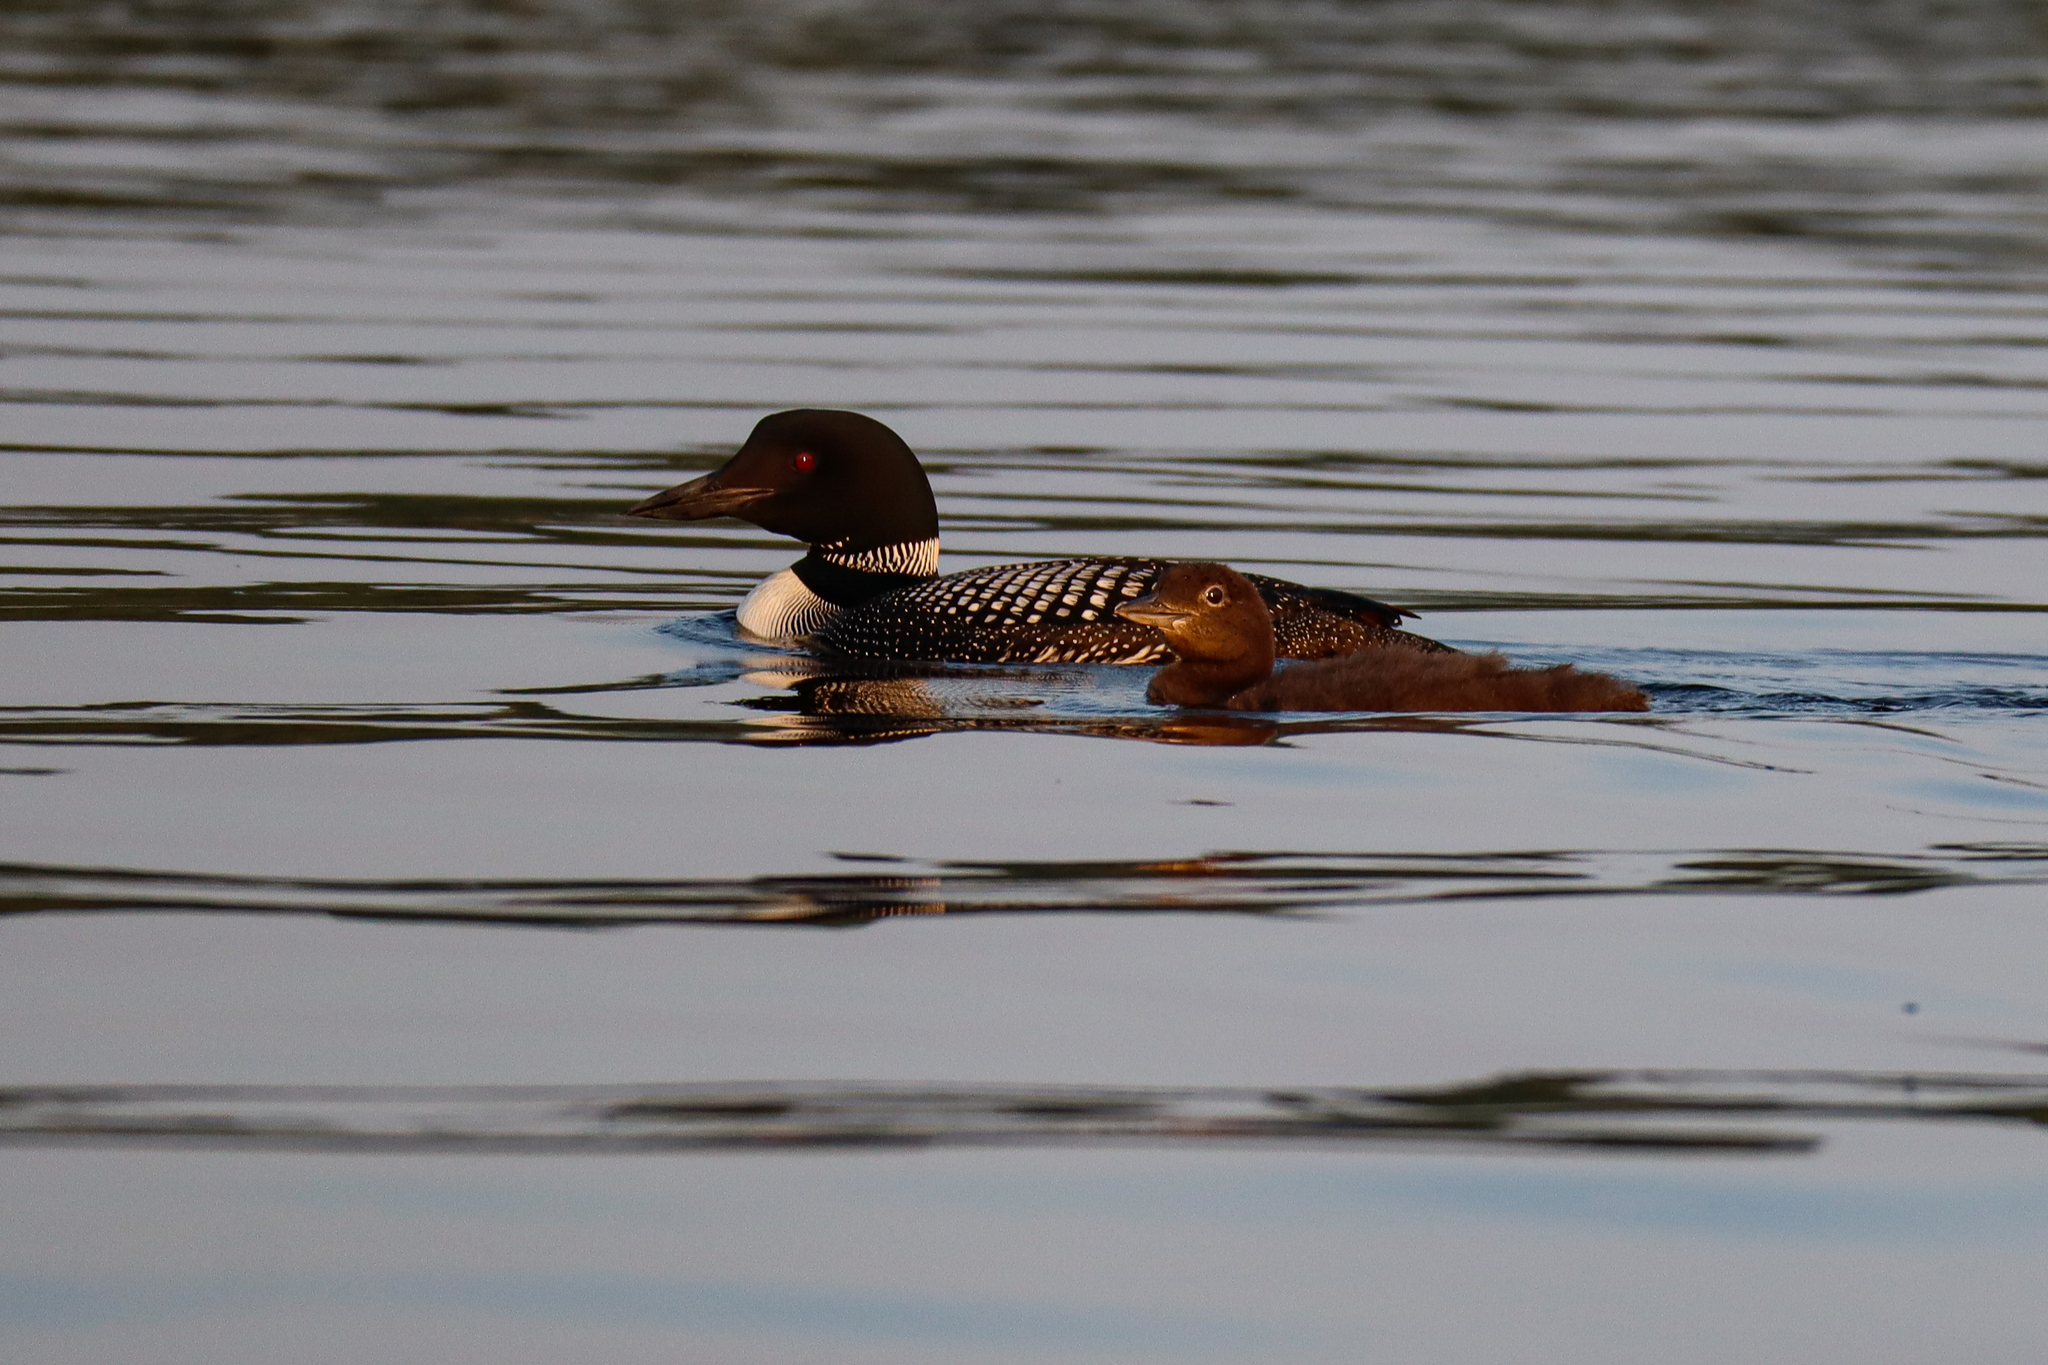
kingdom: Animalia
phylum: Chordata
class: Aves
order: Gaviiformes
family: Gaviidae
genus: Gavia
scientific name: Gavia immer
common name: Common loon
